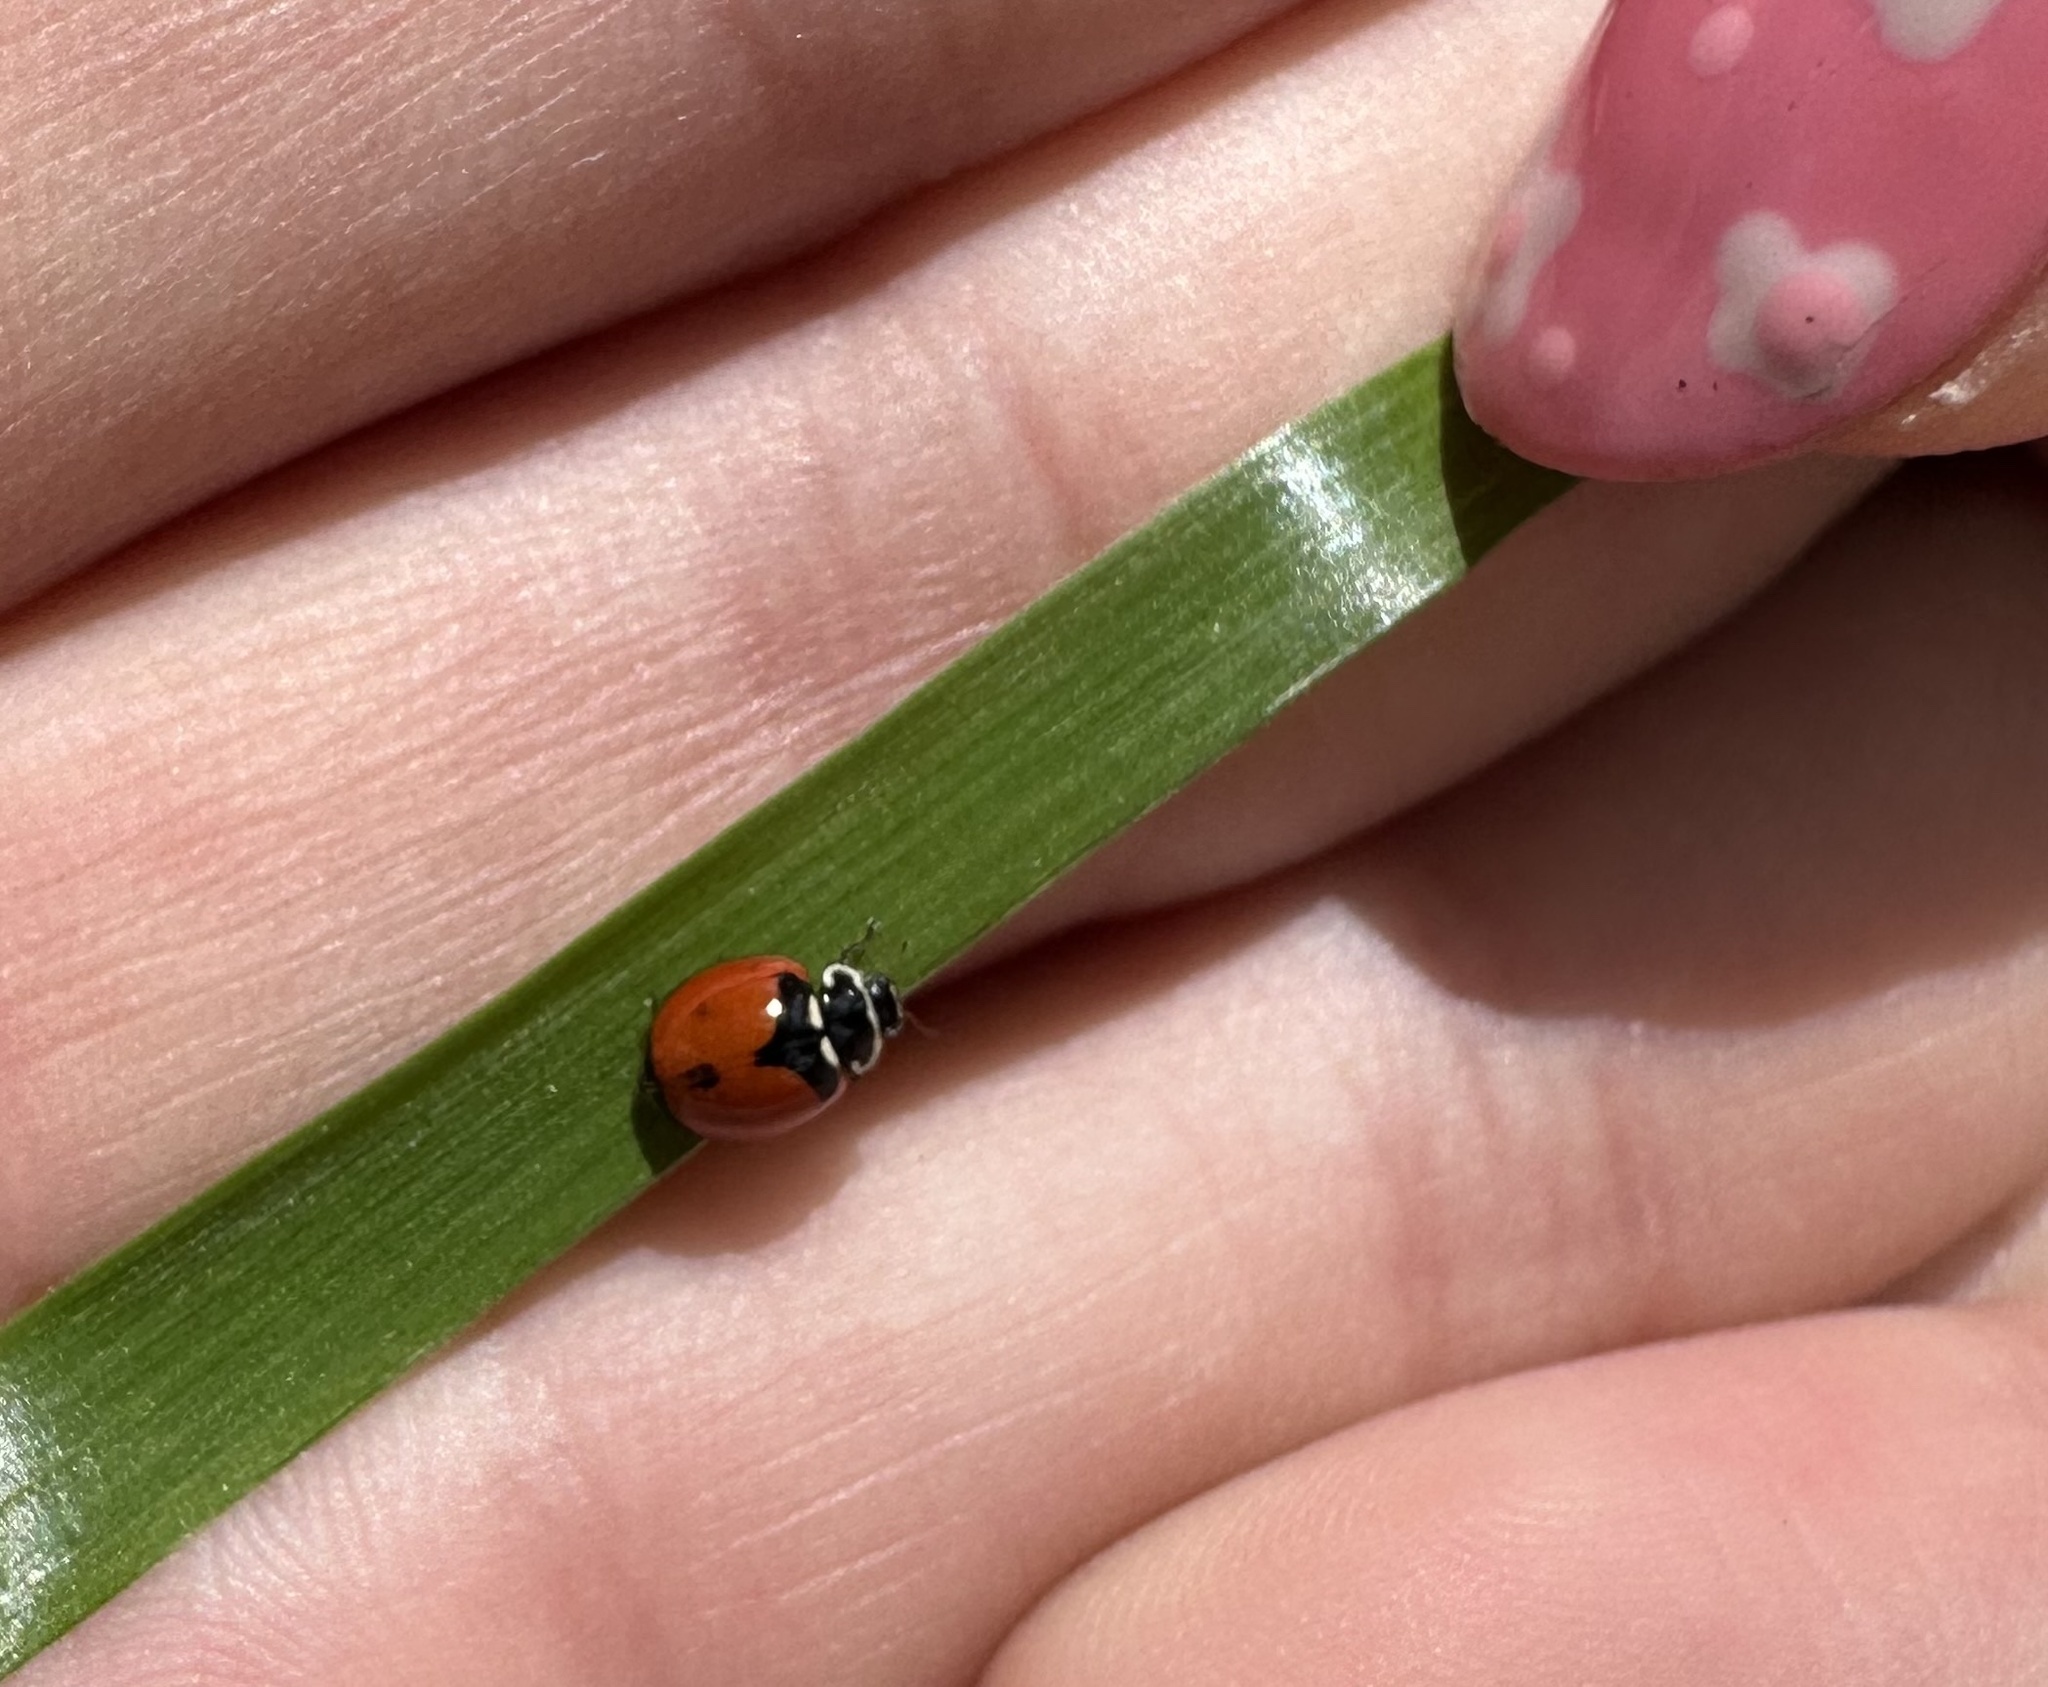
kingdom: Animalia
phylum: Arthropoda
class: Insecta
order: Coleoptera
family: Coccinellidae
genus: Adalia
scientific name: Adalia deficiens
